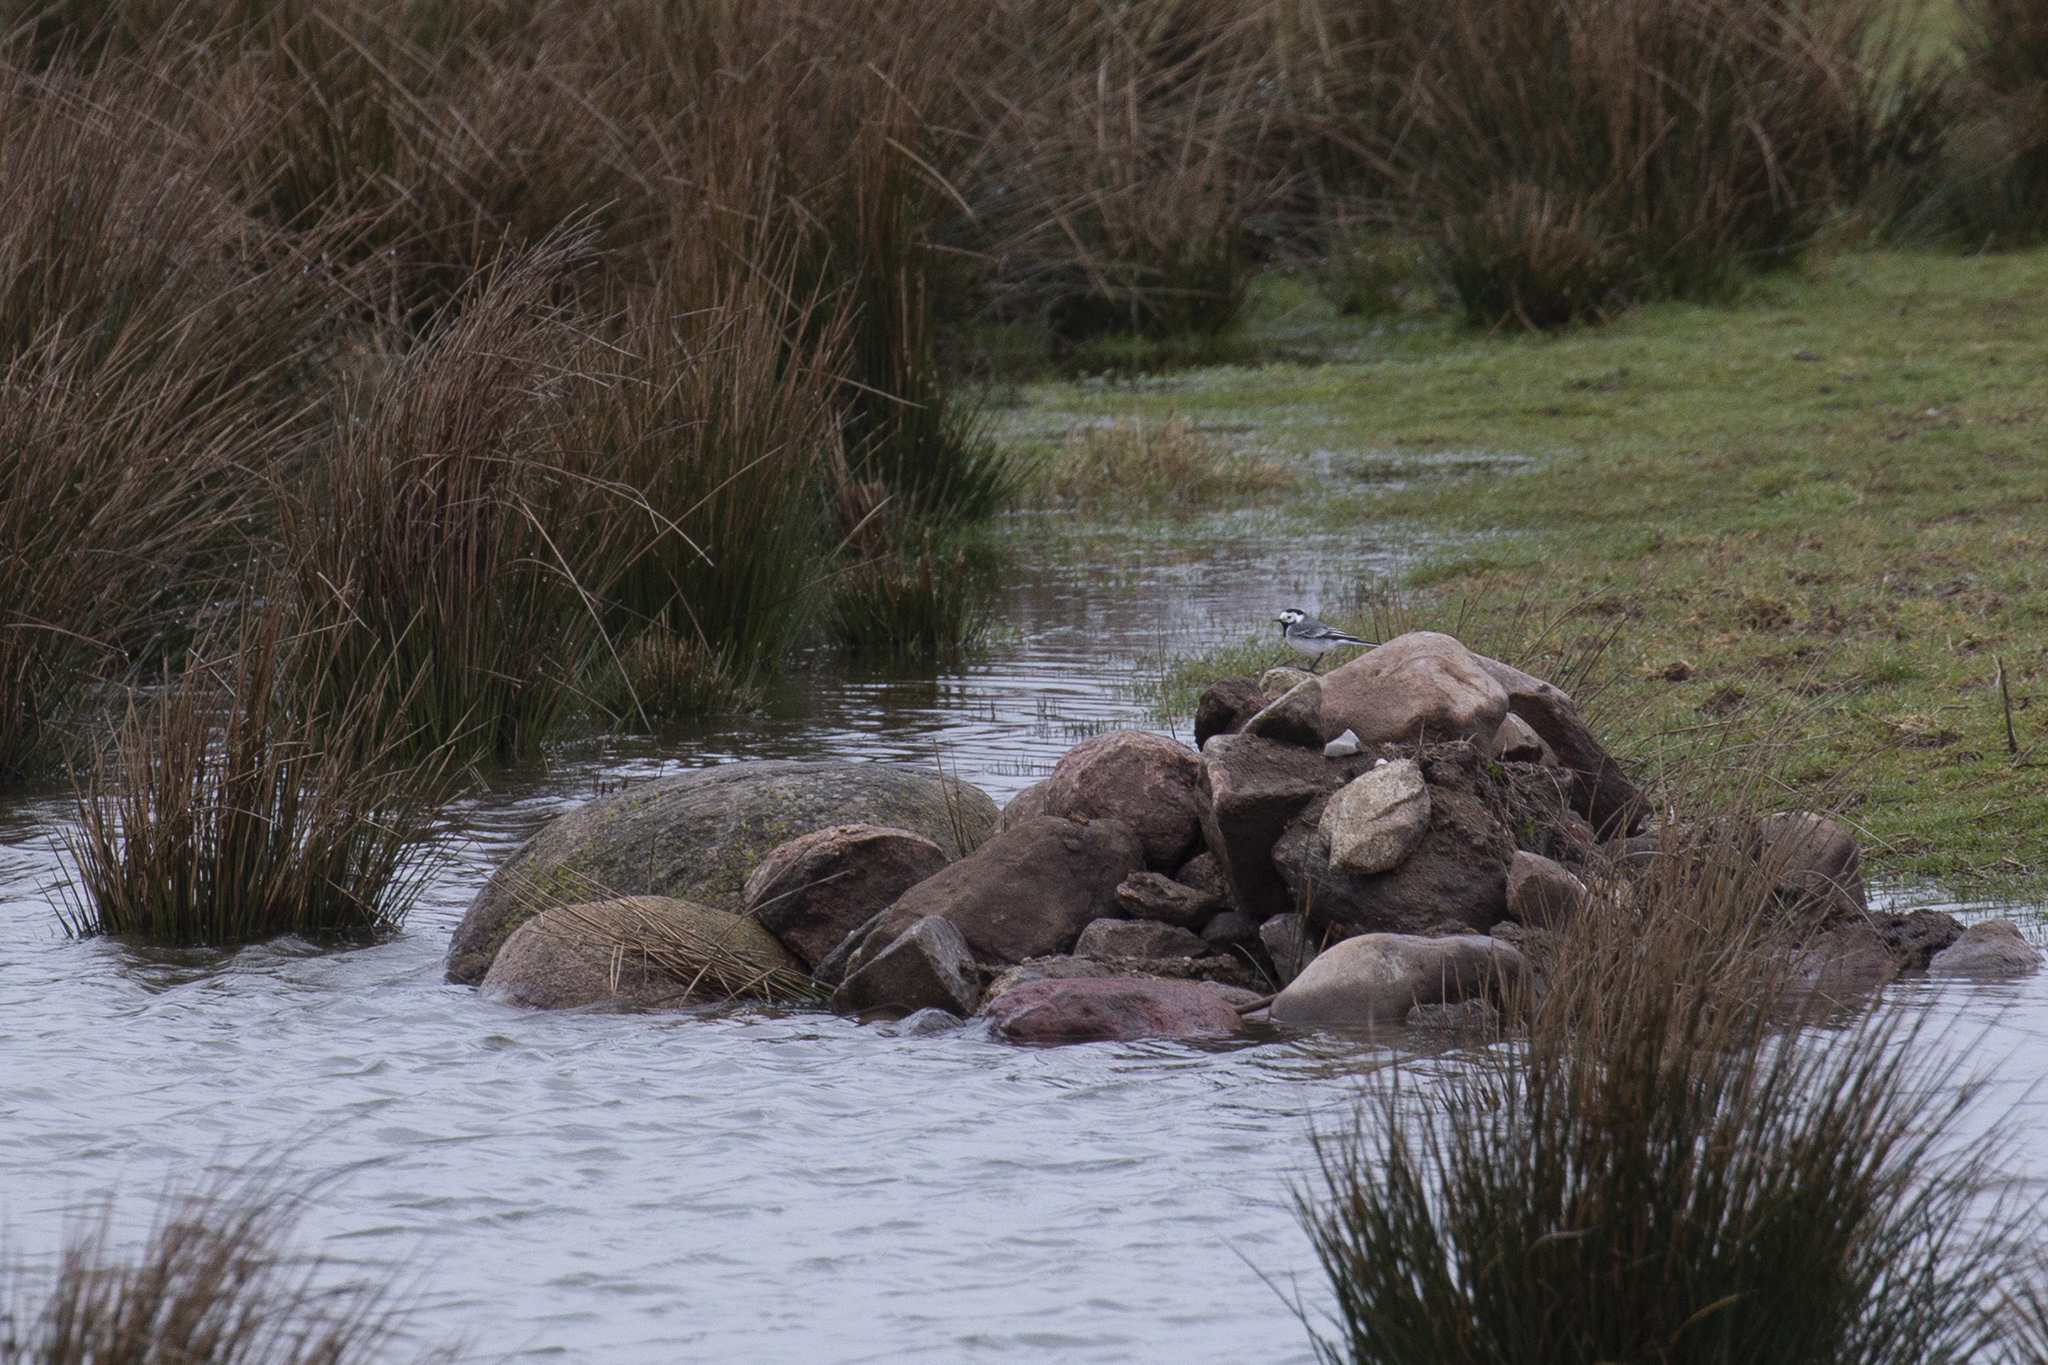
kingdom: Animalia
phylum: Chordata
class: Aves
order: Passeriformes
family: Motacillidae
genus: Motacilla
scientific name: Motacilla alba
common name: White wagtail
